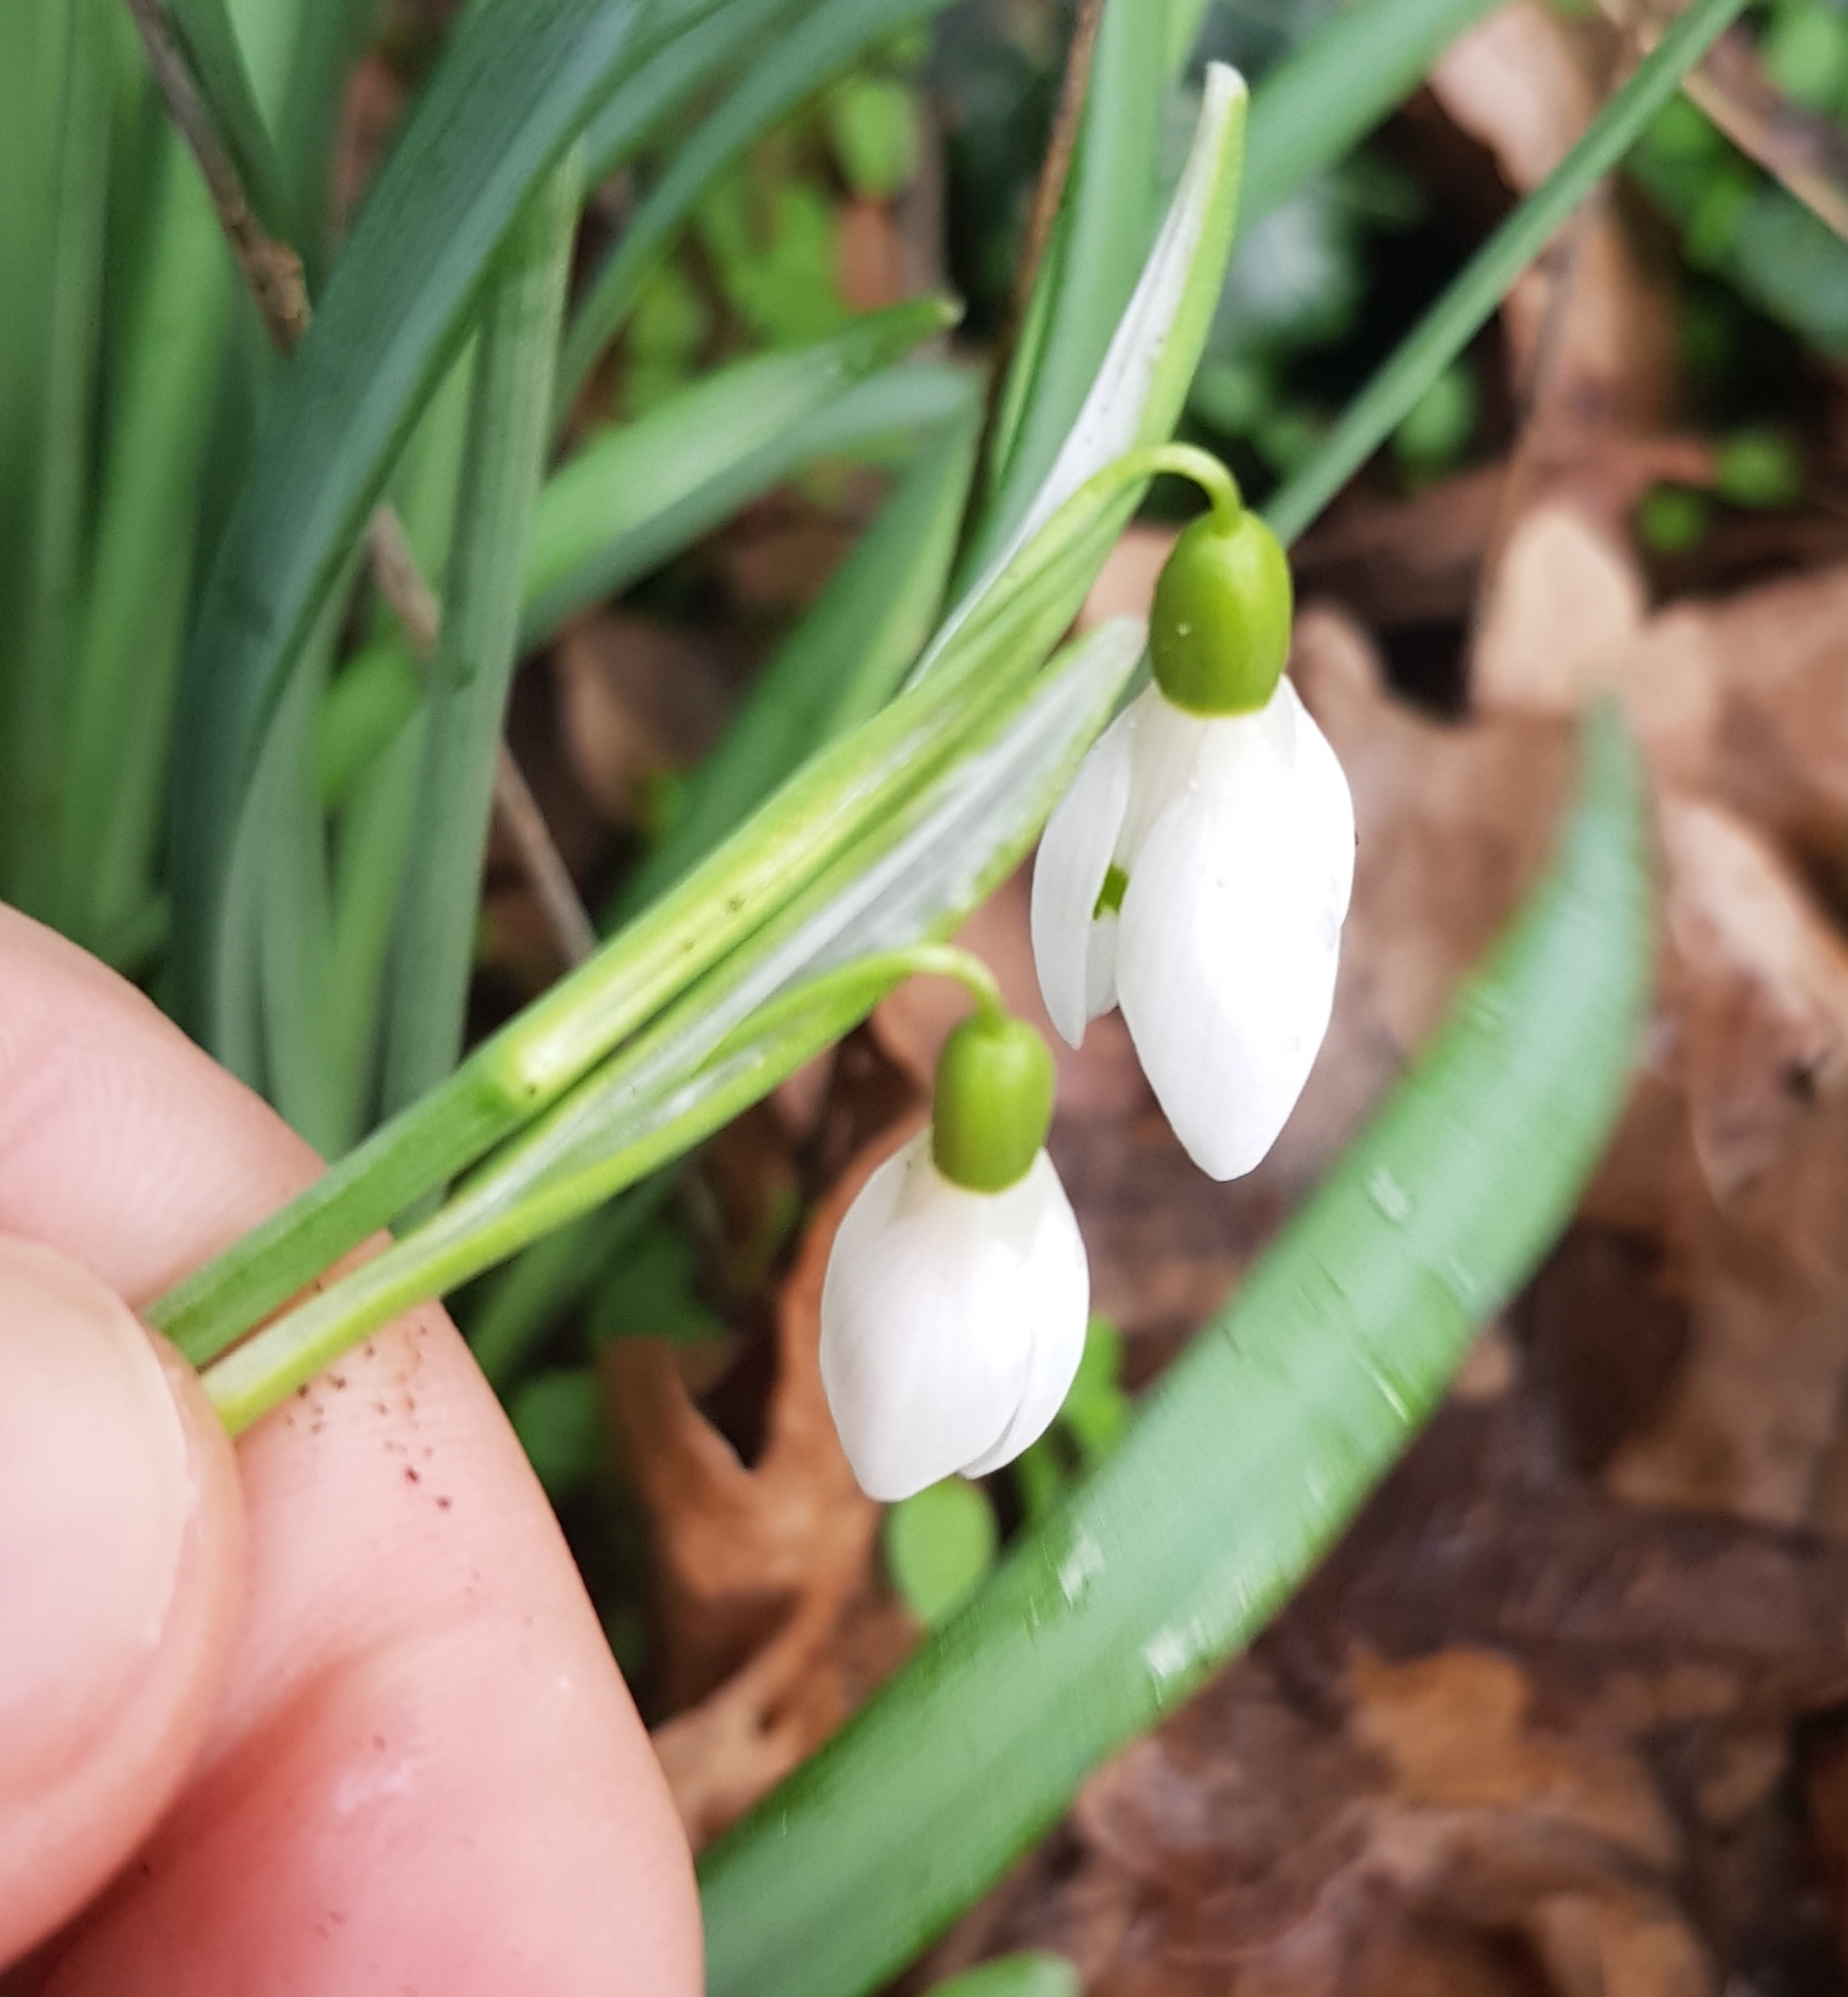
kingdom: Plantae
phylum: Tracheophyta
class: Liliopsida
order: Asparagales
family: Amaryllidaceae
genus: Galanthus
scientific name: Galanthus nivalis
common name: Snowdrop
